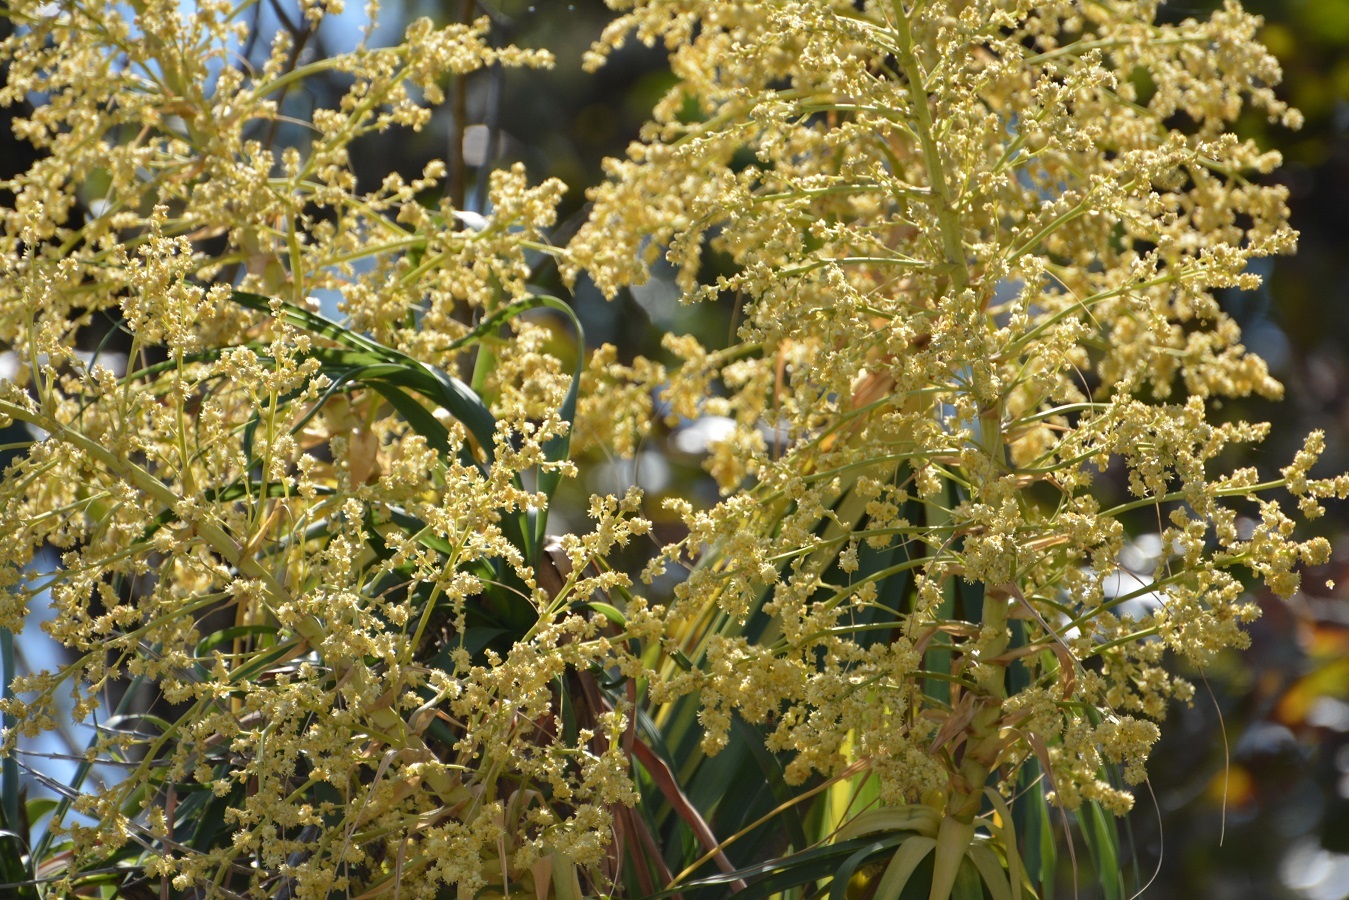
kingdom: Plantae
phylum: Tracheophyta
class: Liliopsida
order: Asparagales
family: Asparagaceae
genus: Beaucarnea
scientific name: Beaucarnea goldmanii
